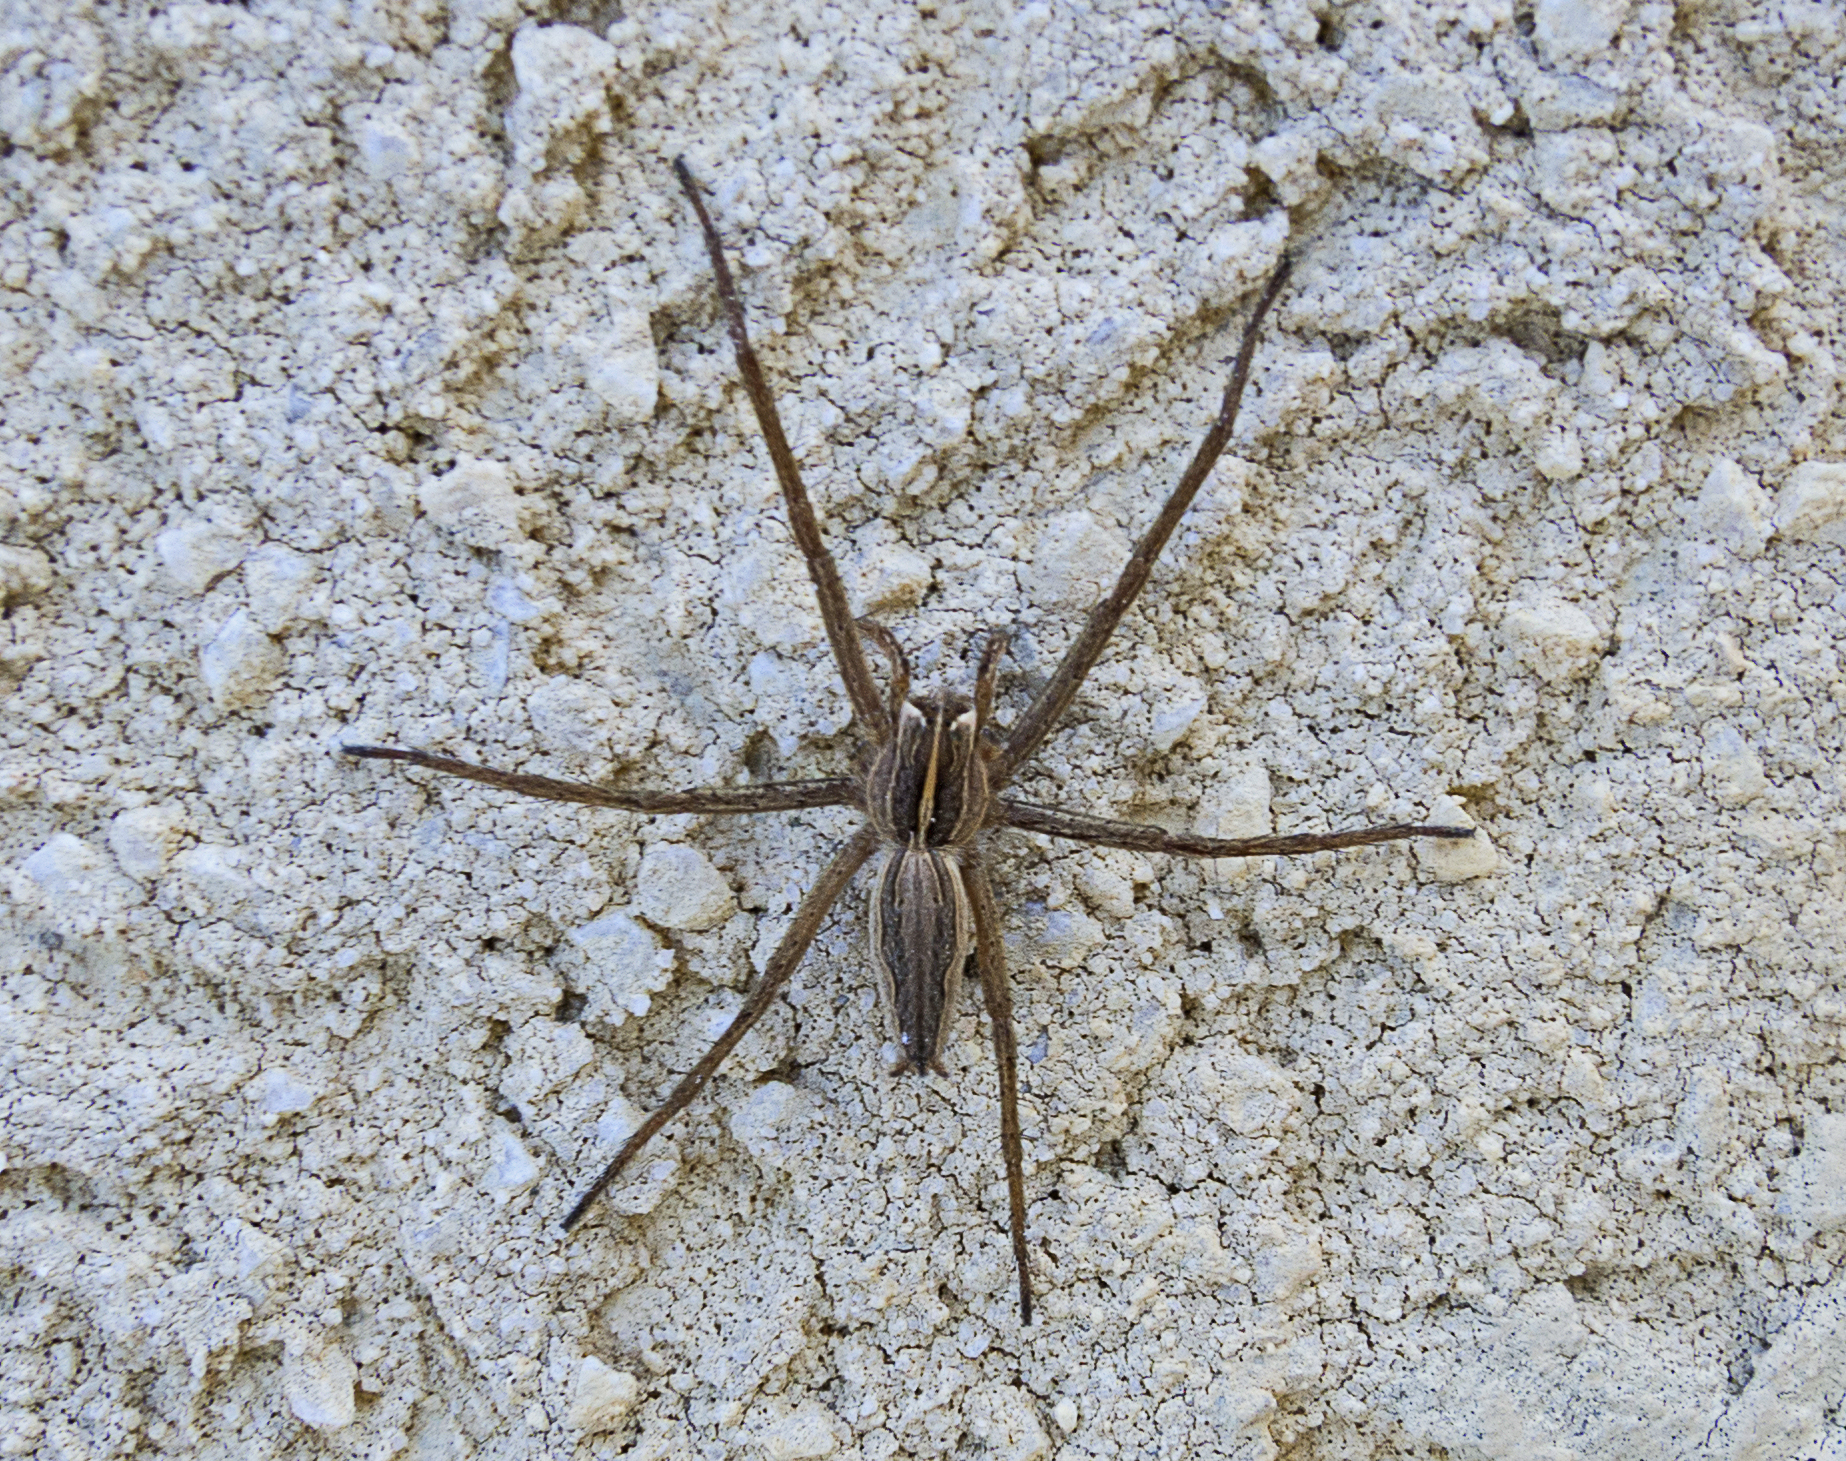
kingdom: Animalia
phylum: Arthropoda
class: Arachnida
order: Araneae
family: Pisauridae
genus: Pisaura
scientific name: Pisaura
